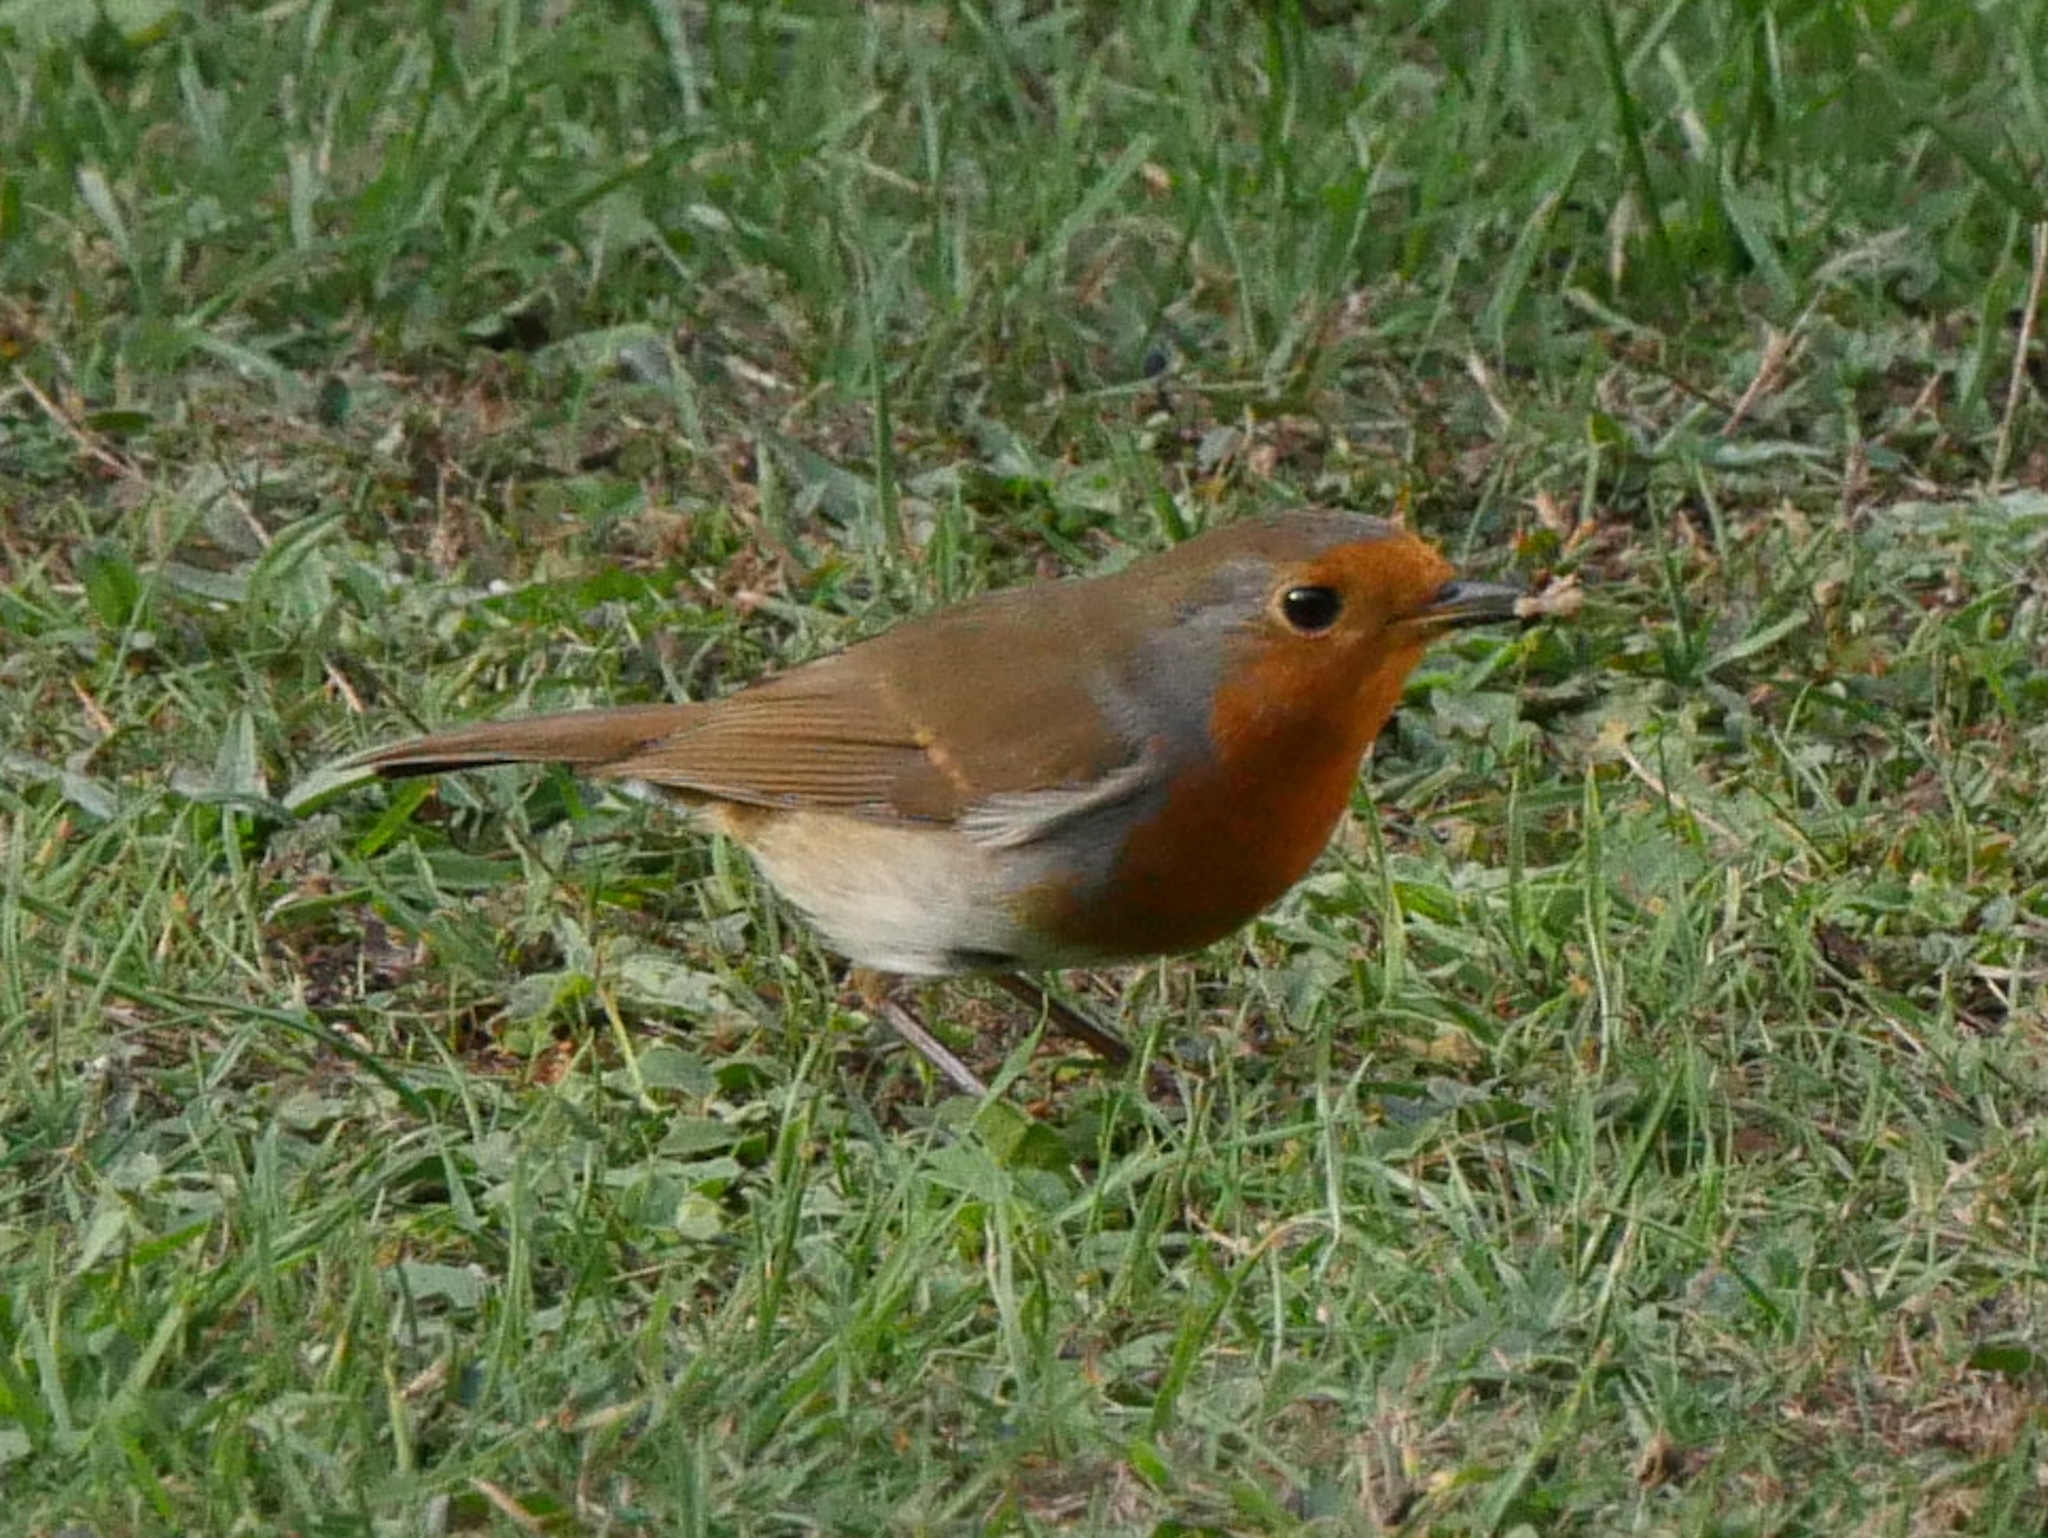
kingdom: Animalia
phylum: Chordata
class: Aves
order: Passeriformes
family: Muscicapidae
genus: Erithacus
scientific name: Erithacus rubecula
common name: European robin
